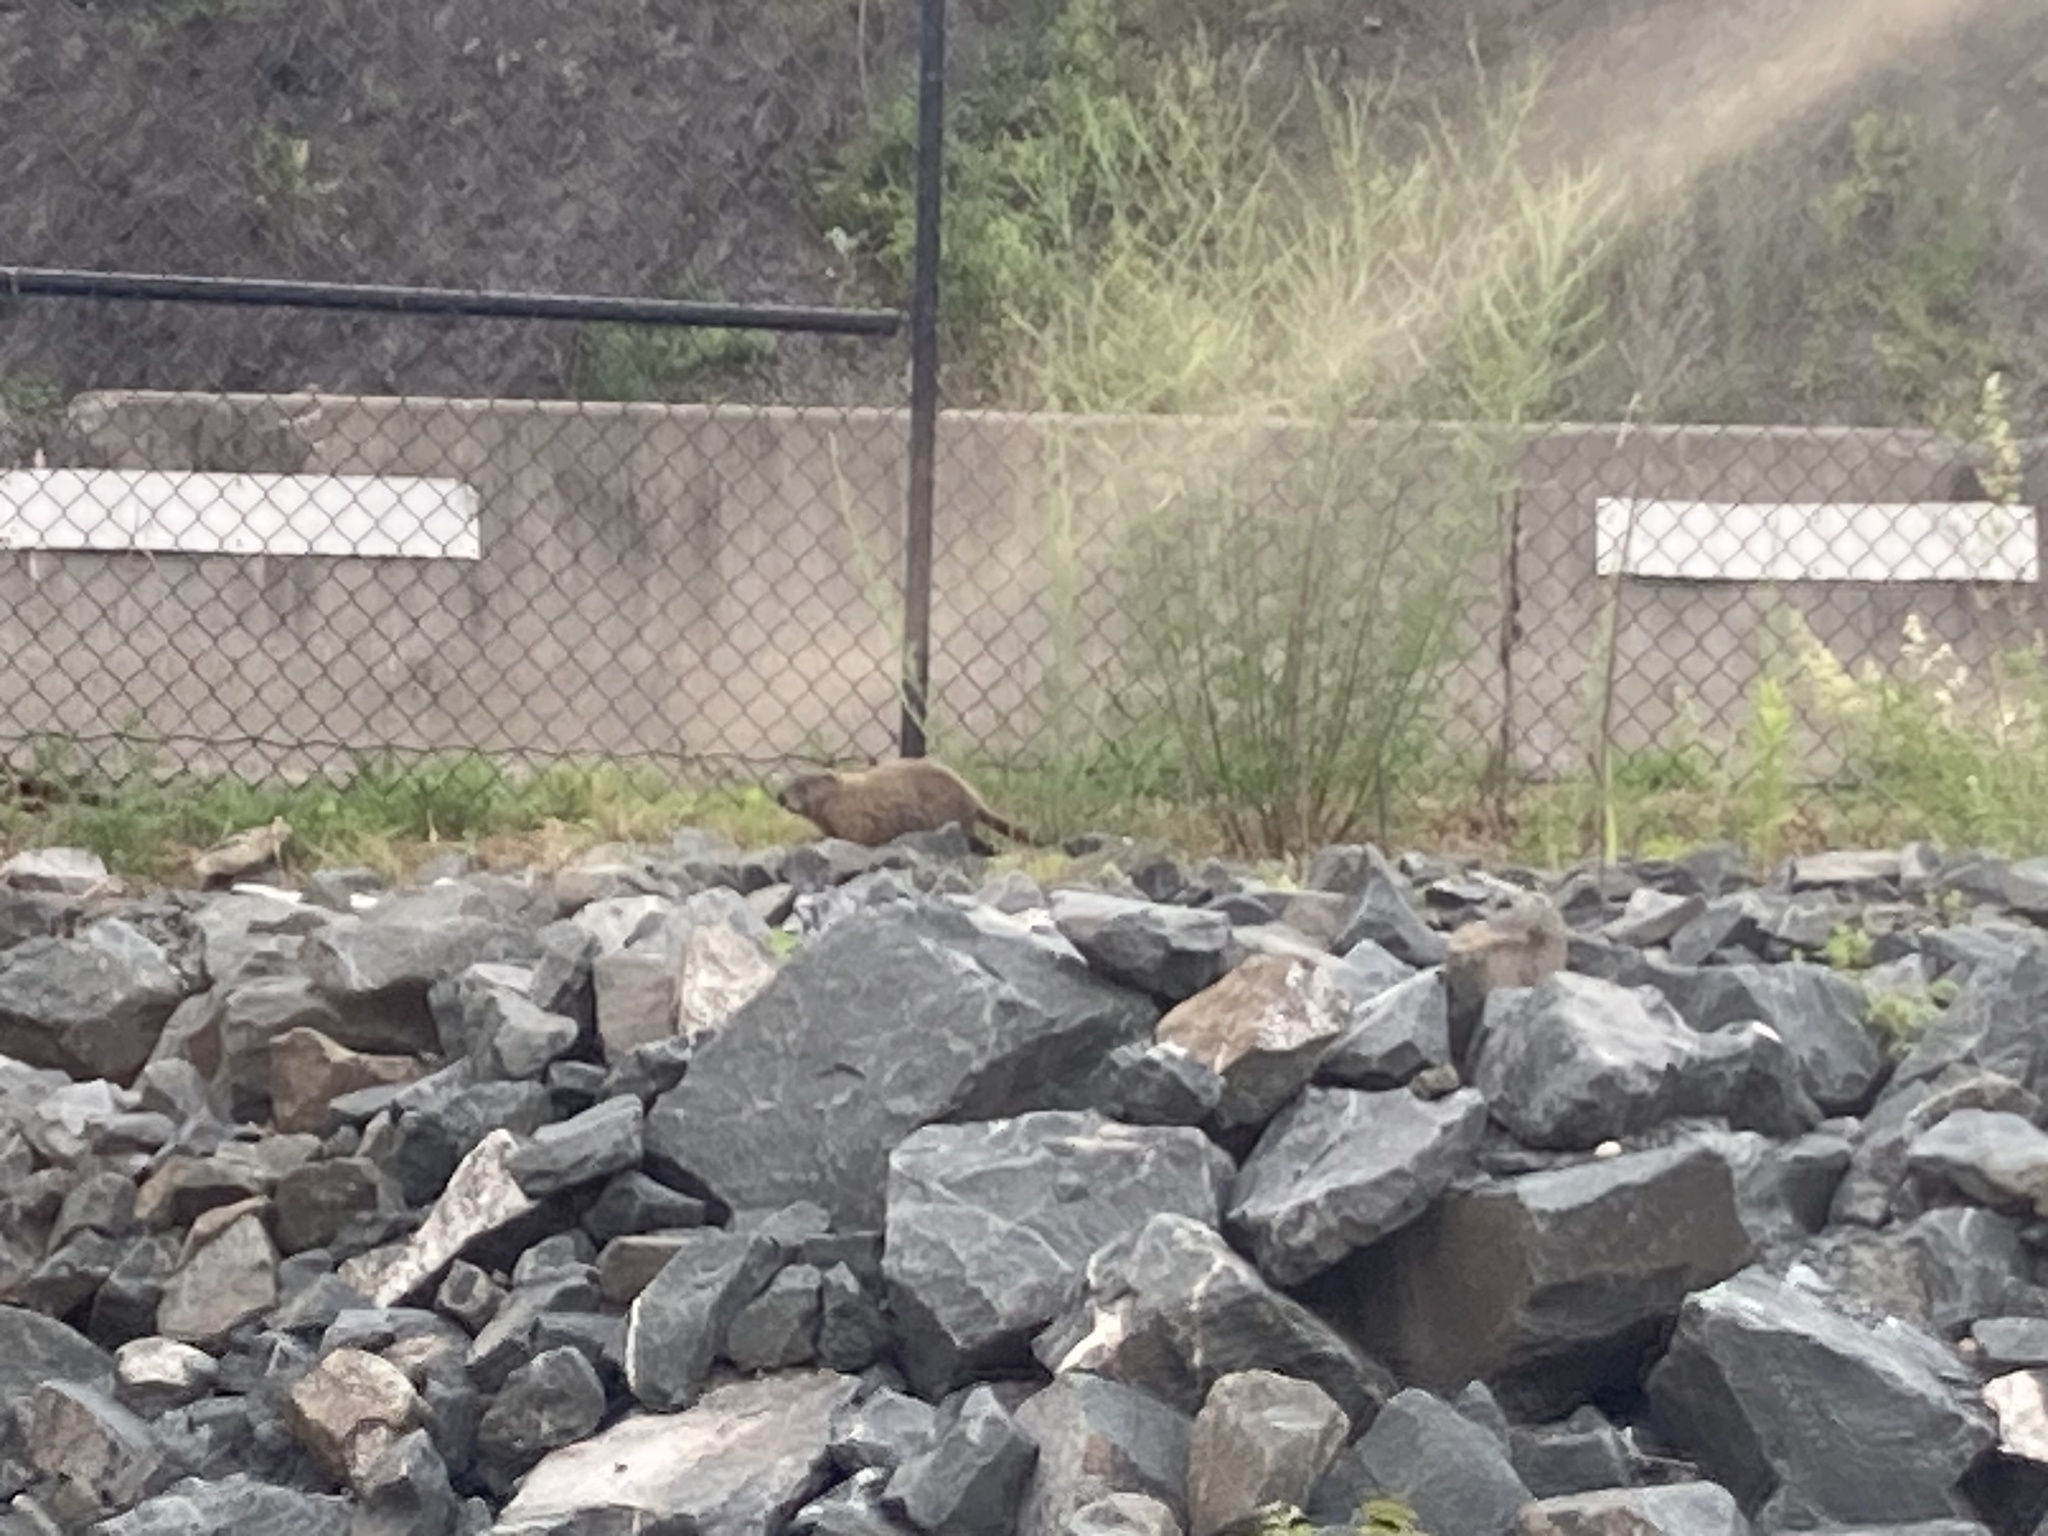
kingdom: Animalia
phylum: Chordata
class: Aves
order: Anseriformes
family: Anatidae
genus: Branta
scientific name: Branta canadensis
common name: Canada goose
